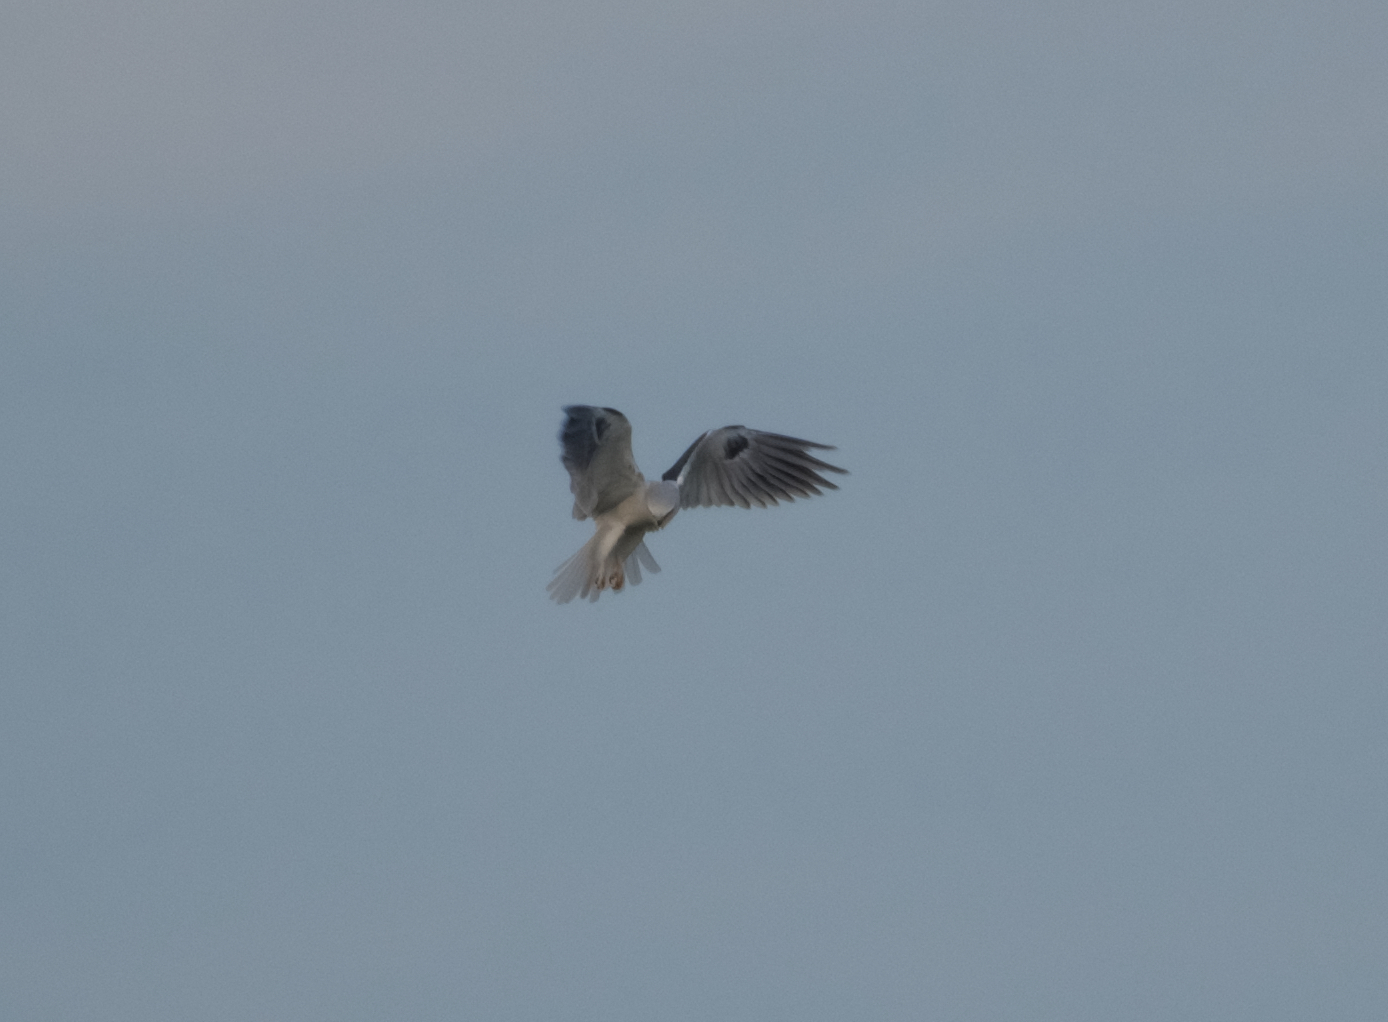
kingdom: Animalia
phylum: Chordata
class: Aves
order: Accipitriformes
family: Accipitridae
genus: Elanus
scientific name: Elanus leucurus
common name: White-tailed kite
